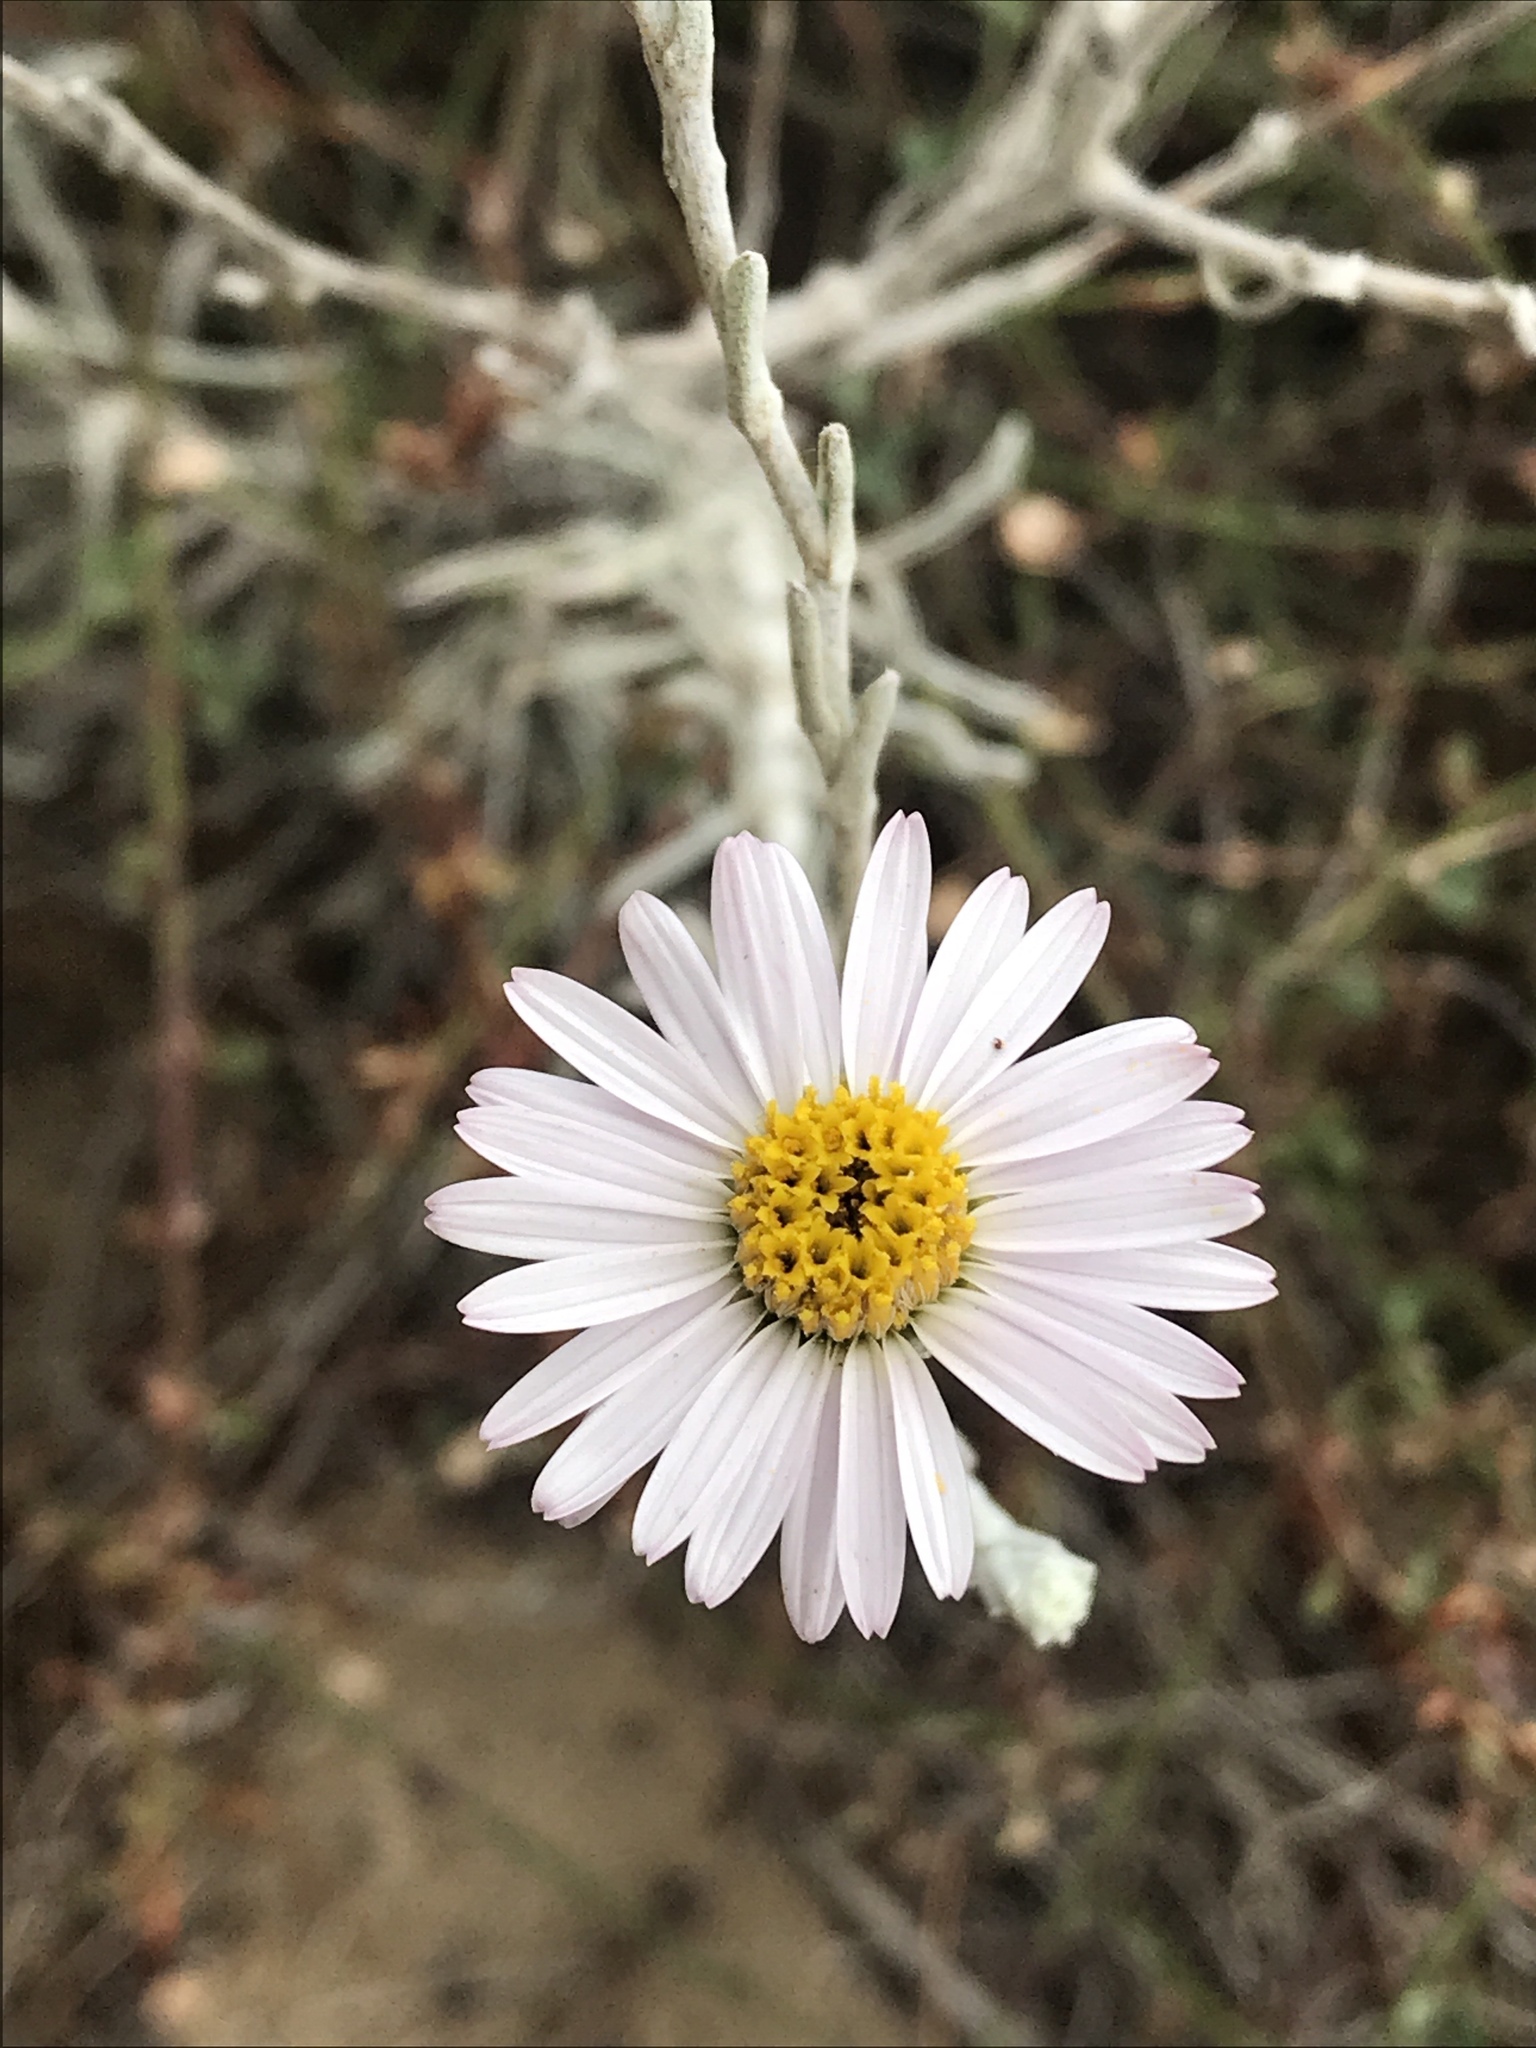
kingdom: Plantae
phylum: Tracheophyta
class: Magnoliopsida
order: Asterales
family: Asteraceae
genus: Corethrogyne
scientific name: Corethrogyne filaginifolia
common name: Sand-aster
